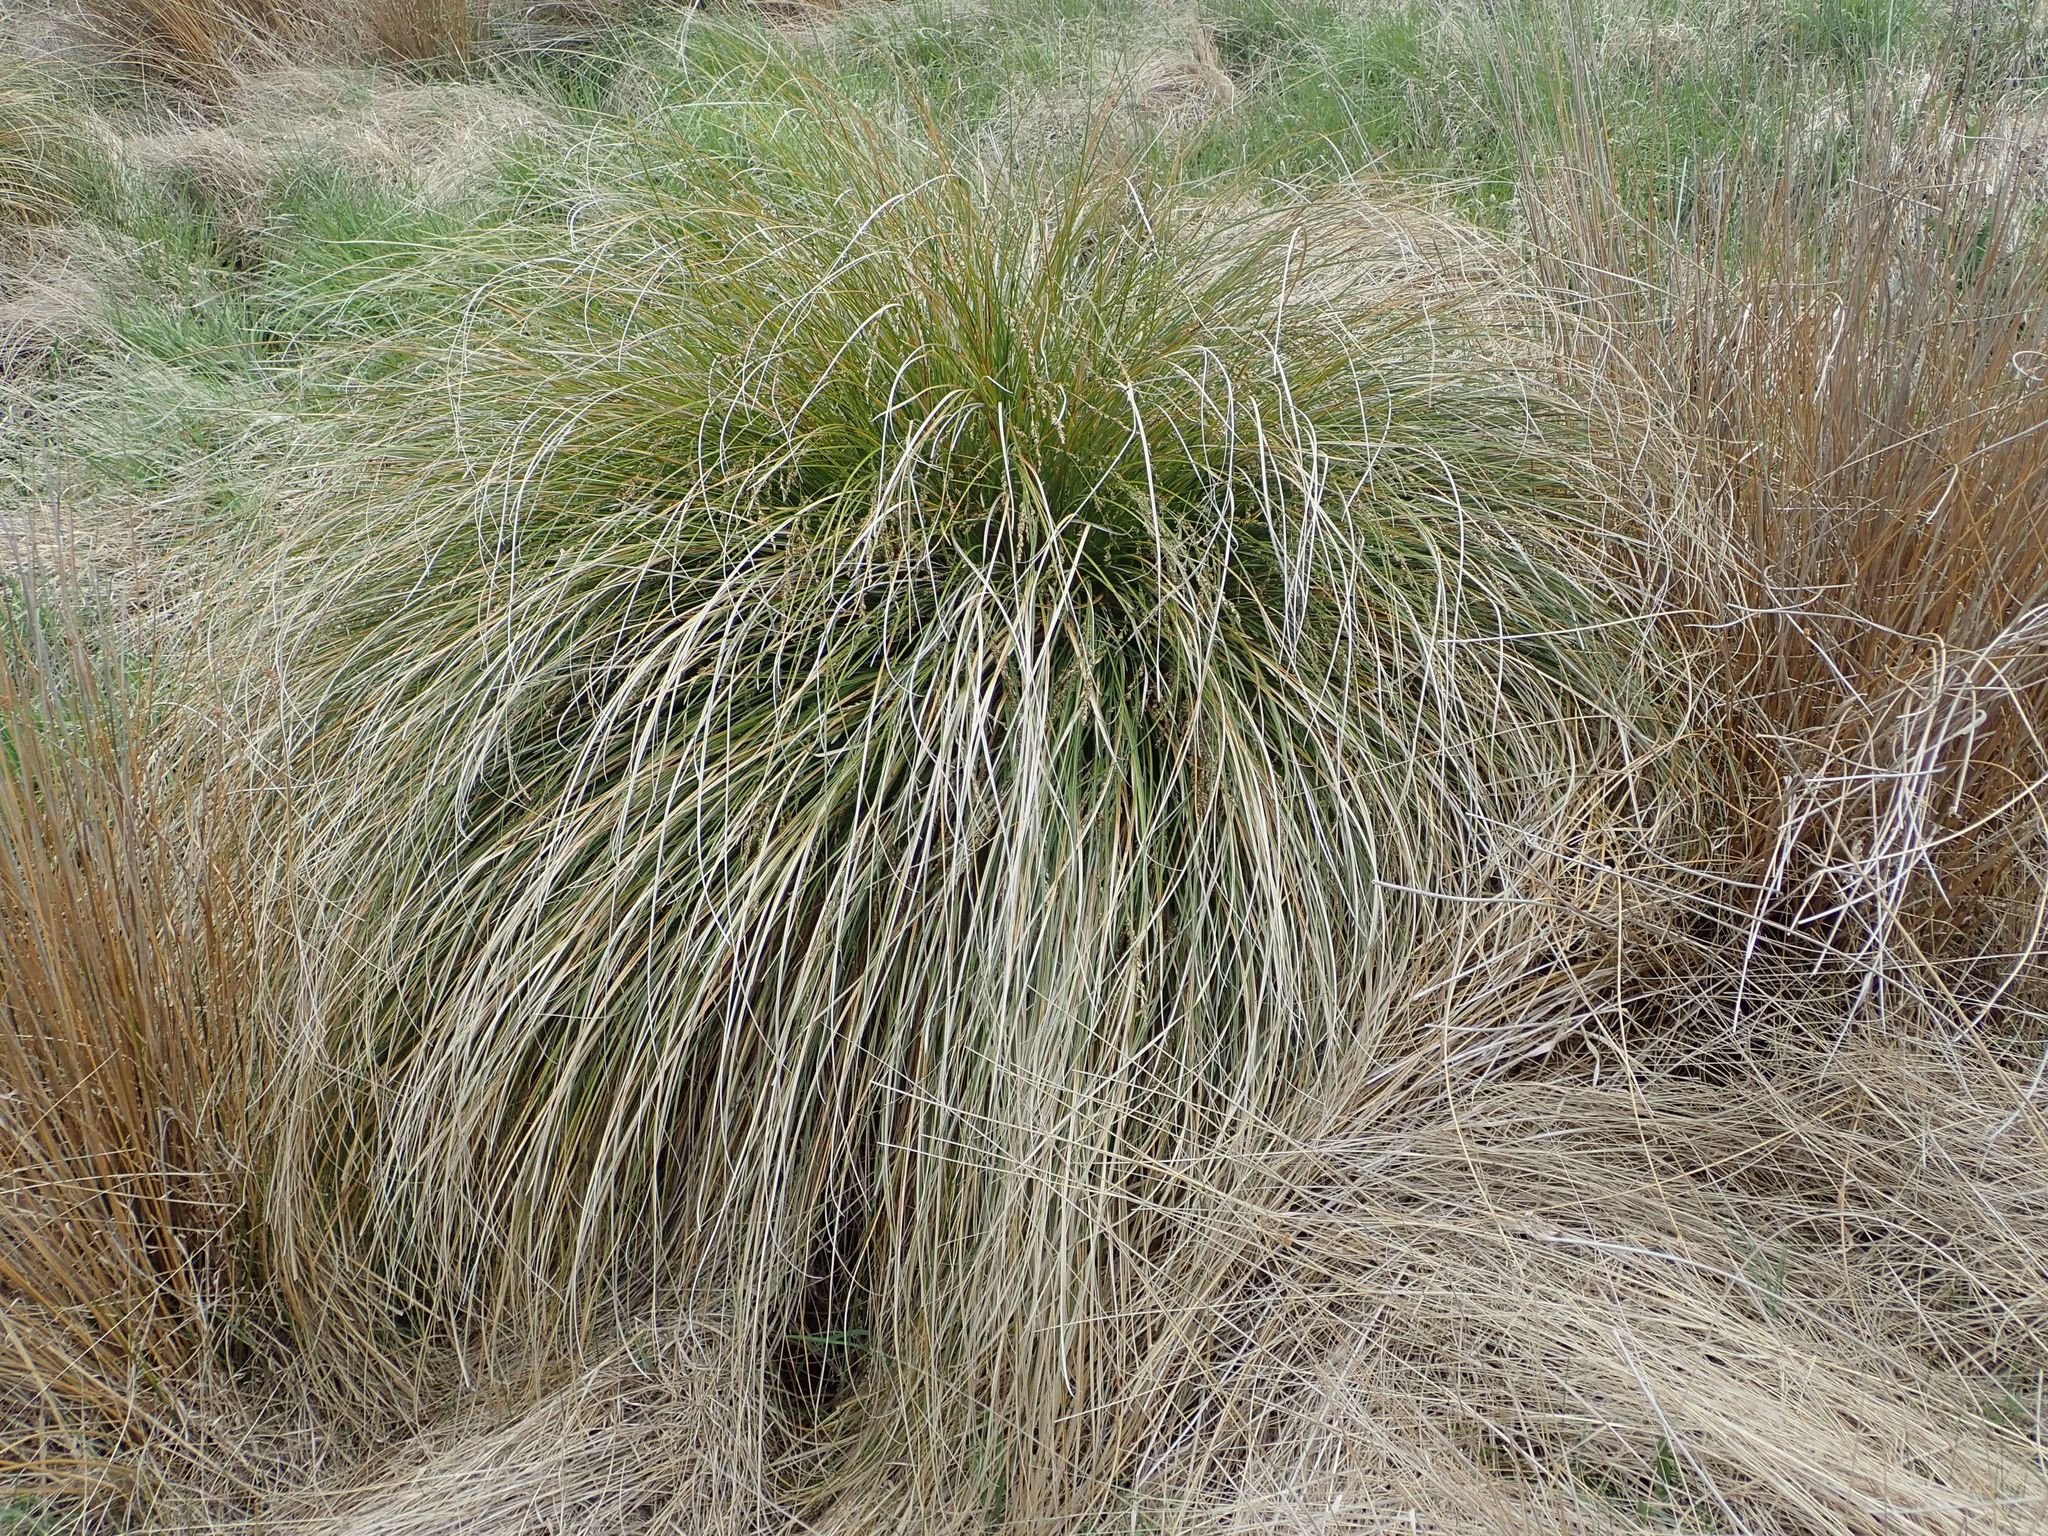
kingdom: Plantae
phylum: Tracheophyta
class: Liliopsida
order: Poales
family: Cyperaceae
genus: Carex
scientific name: Carex secta
